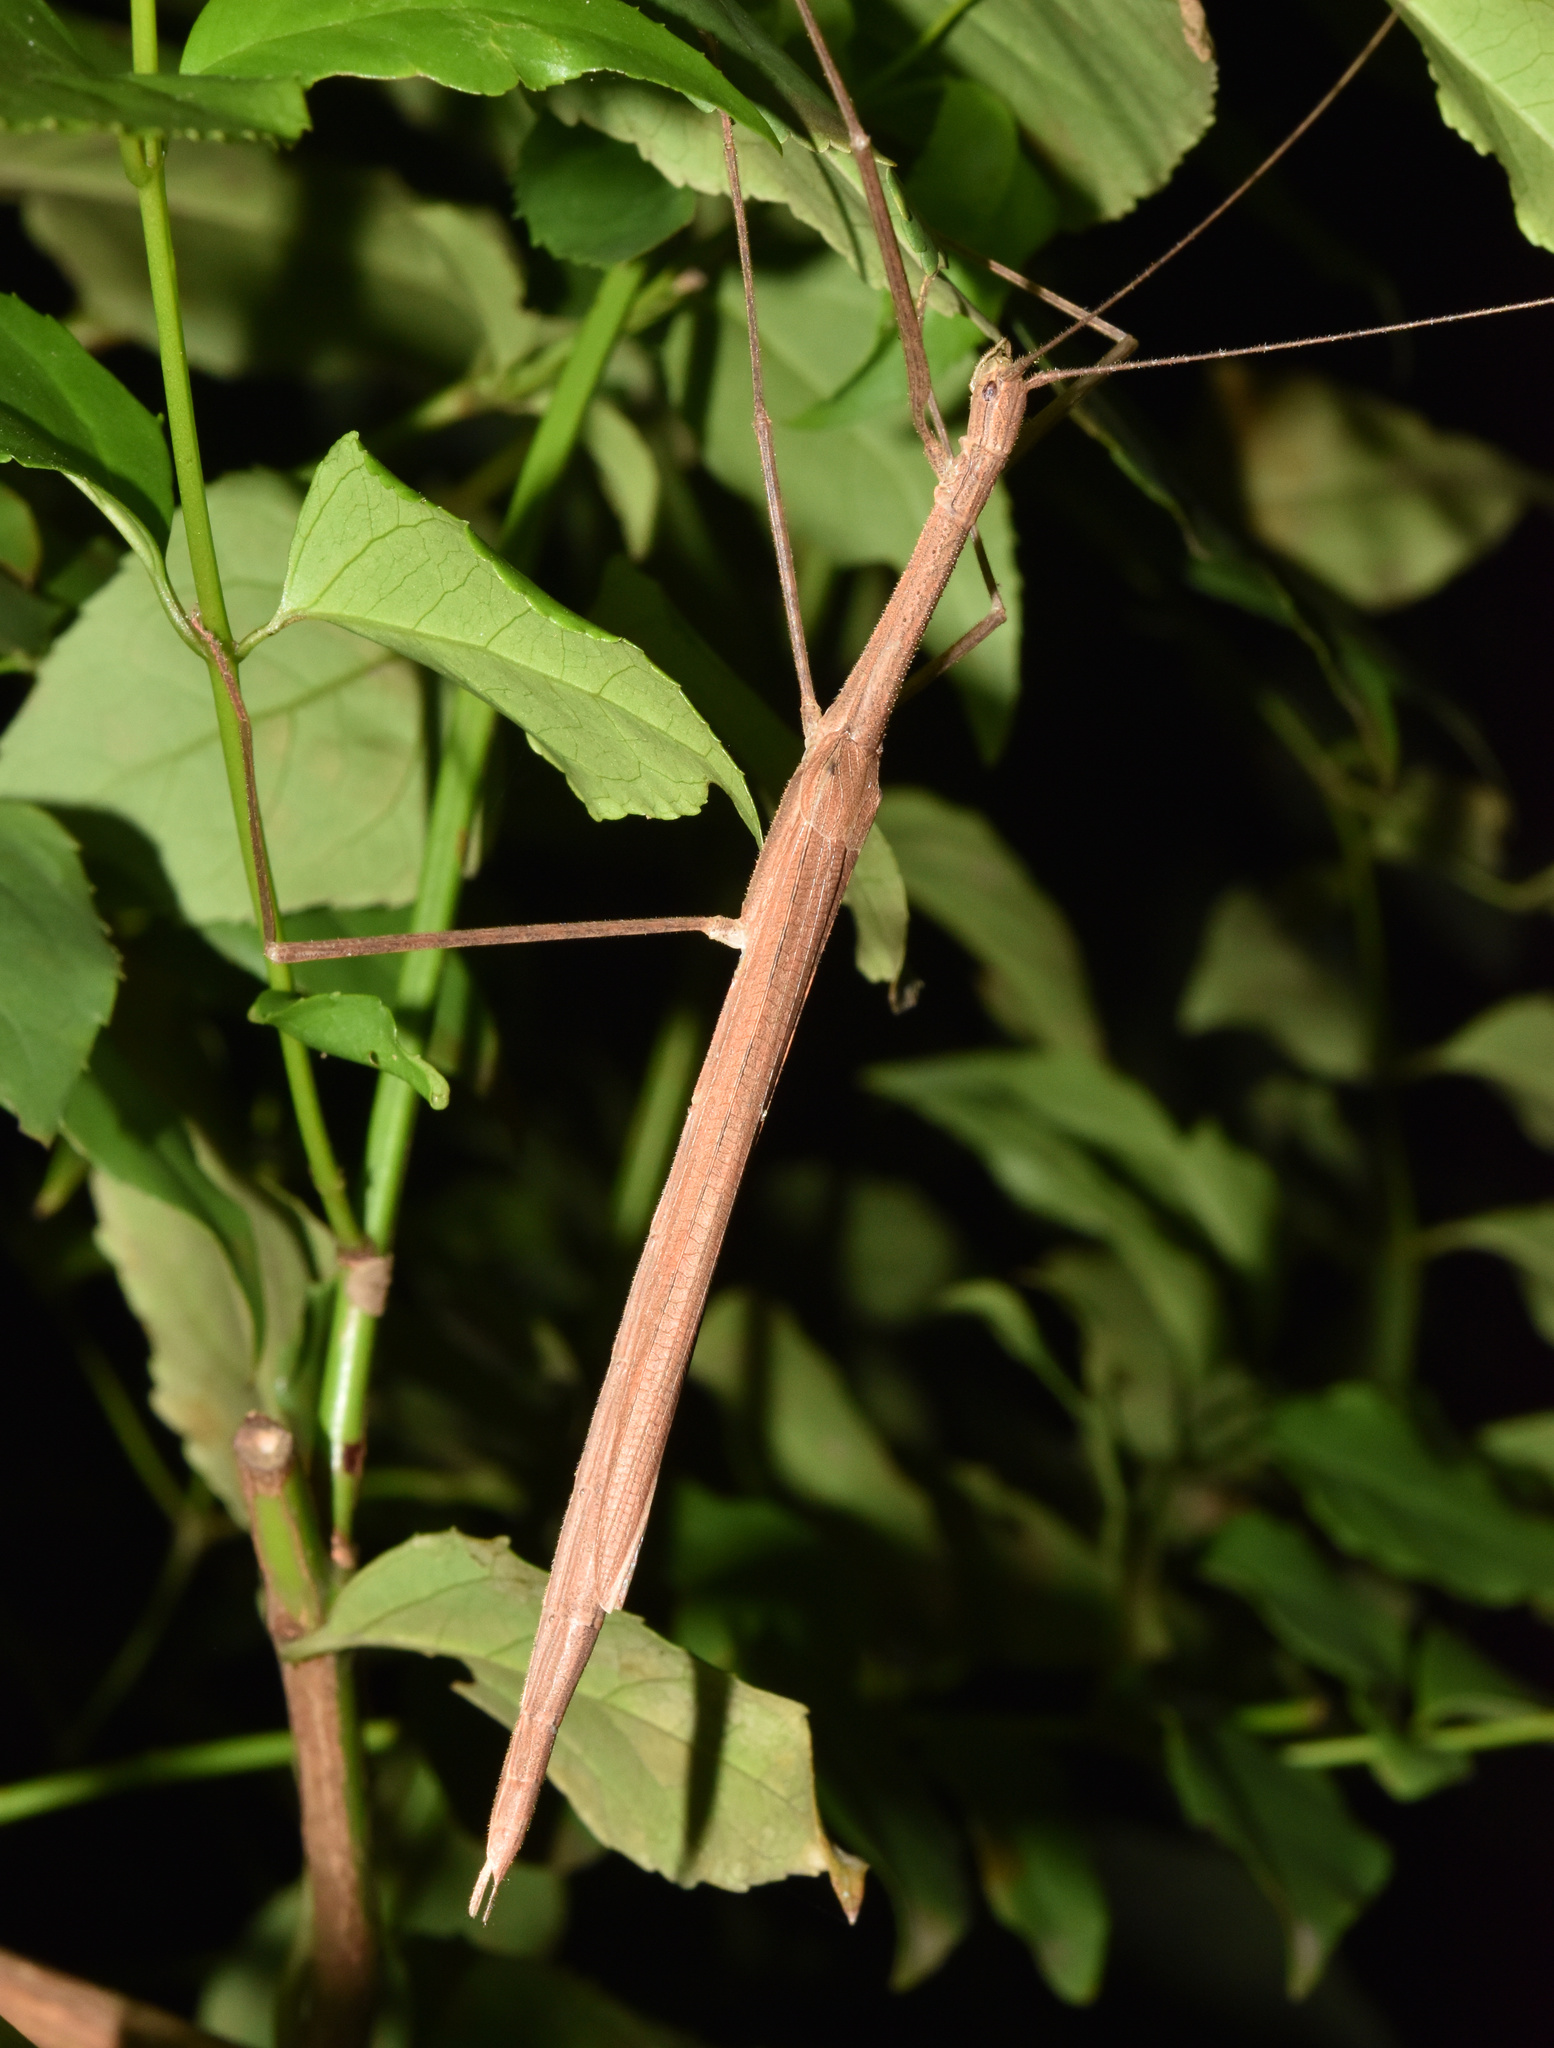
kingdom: Animalia
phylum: Arthropoda
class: Insecta
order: Phasmida
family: Lonchodidae
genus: Sipyloidea
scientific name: Sipyloidea sipylus
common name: Madagascan stick insect
